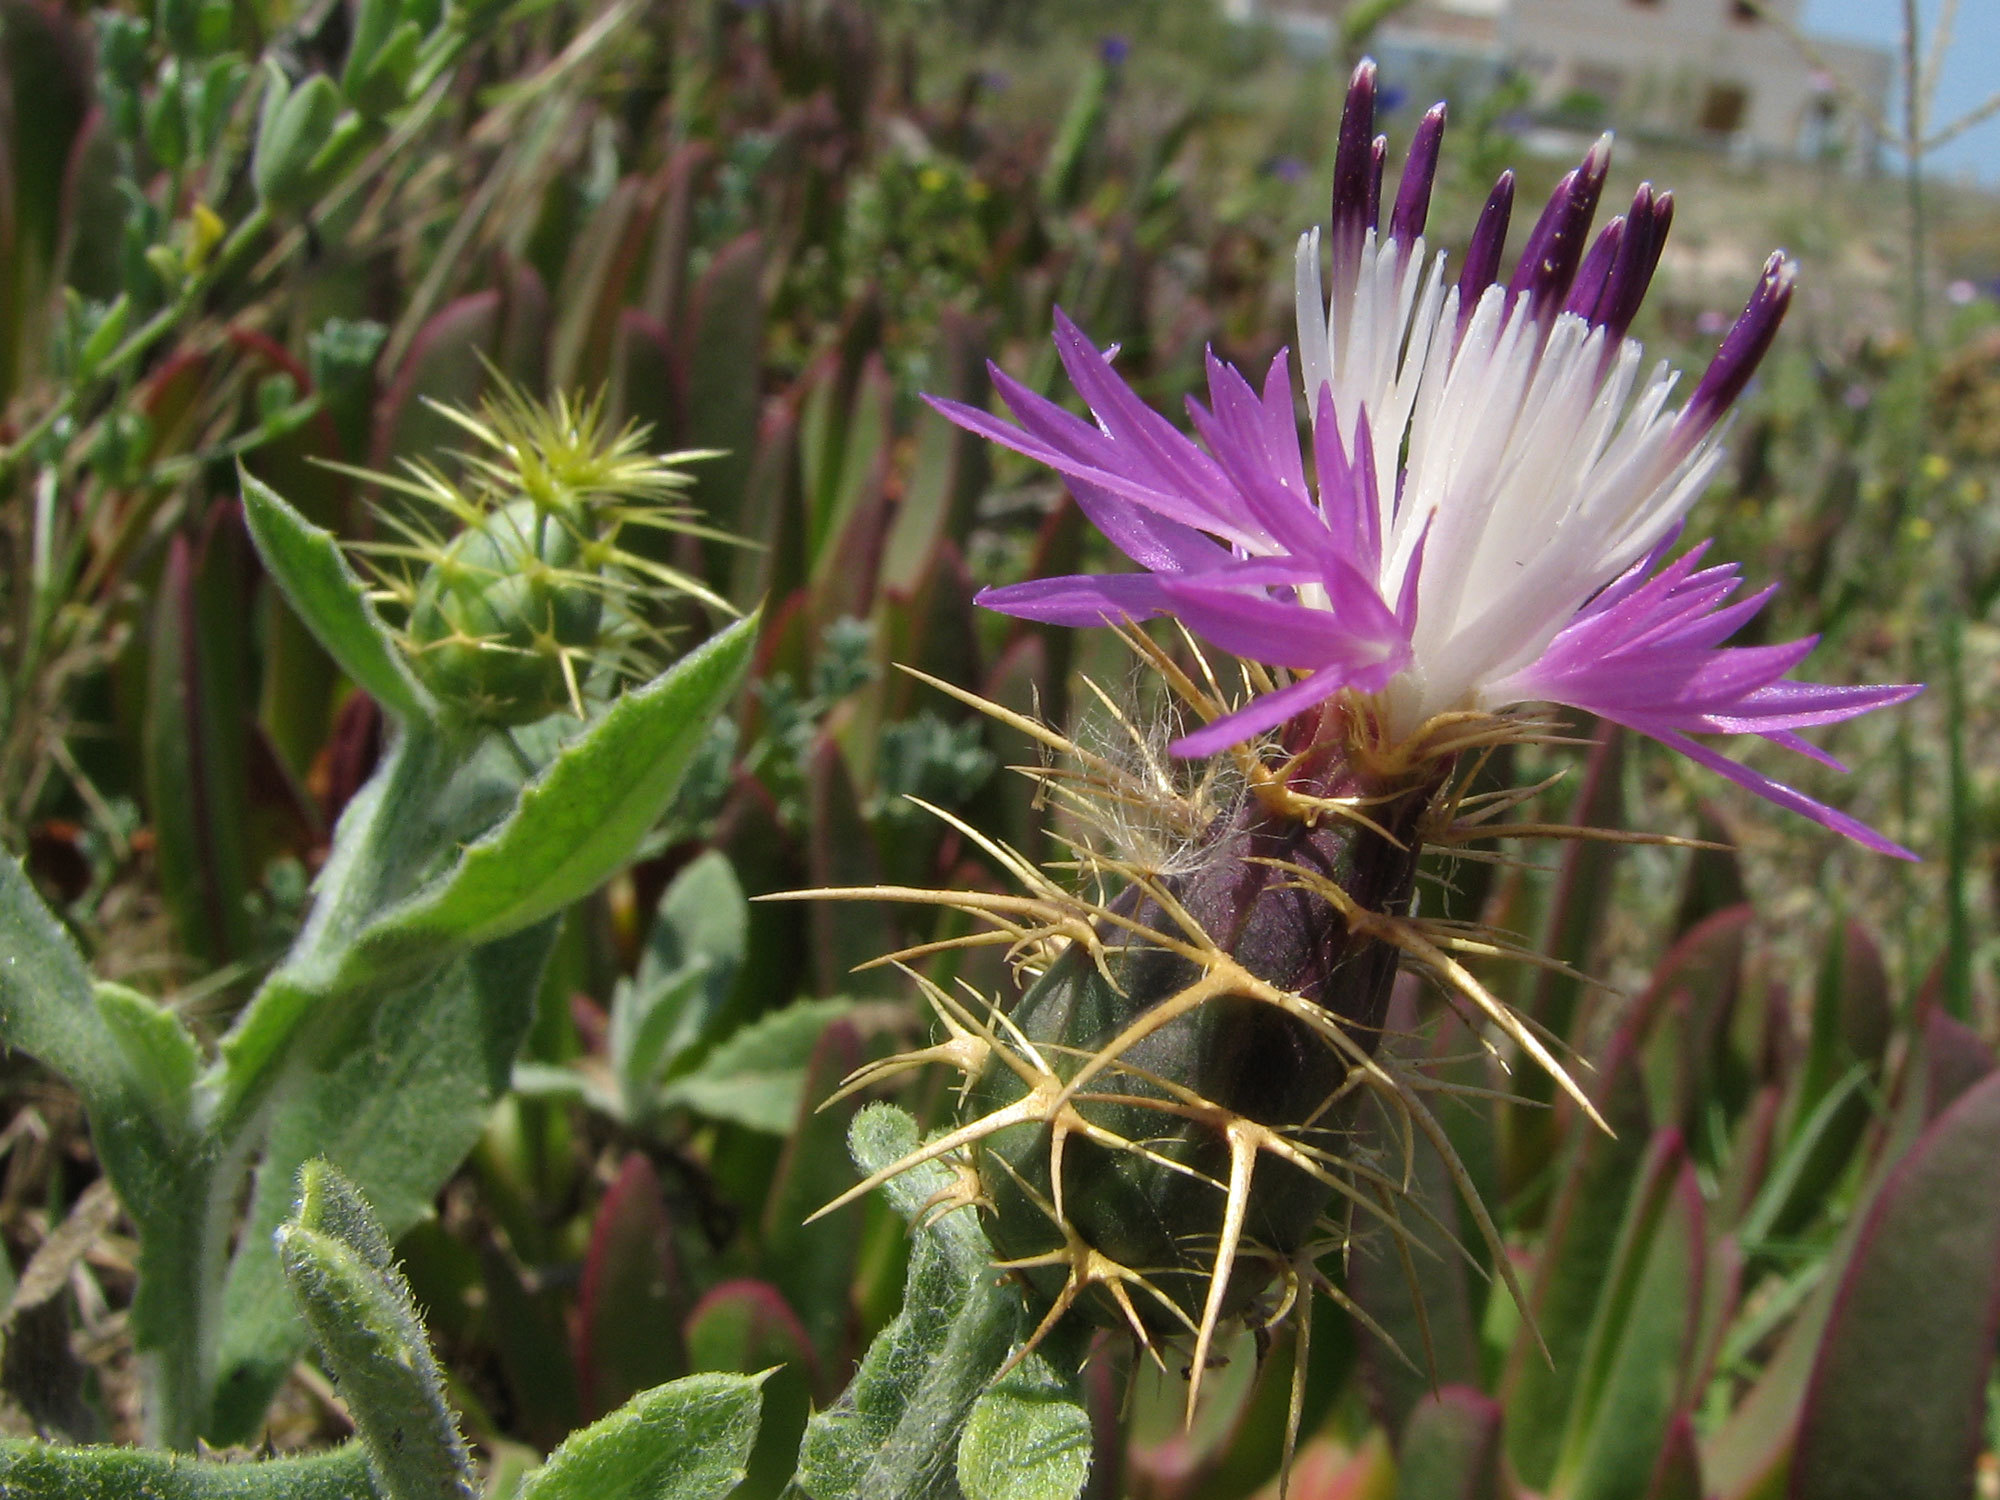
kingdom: Plantae
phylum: Tracheophyta
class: Magnoliopsida
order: Asterales
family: Asteraceae
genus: Centaurea
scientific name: Centaurea seridis
